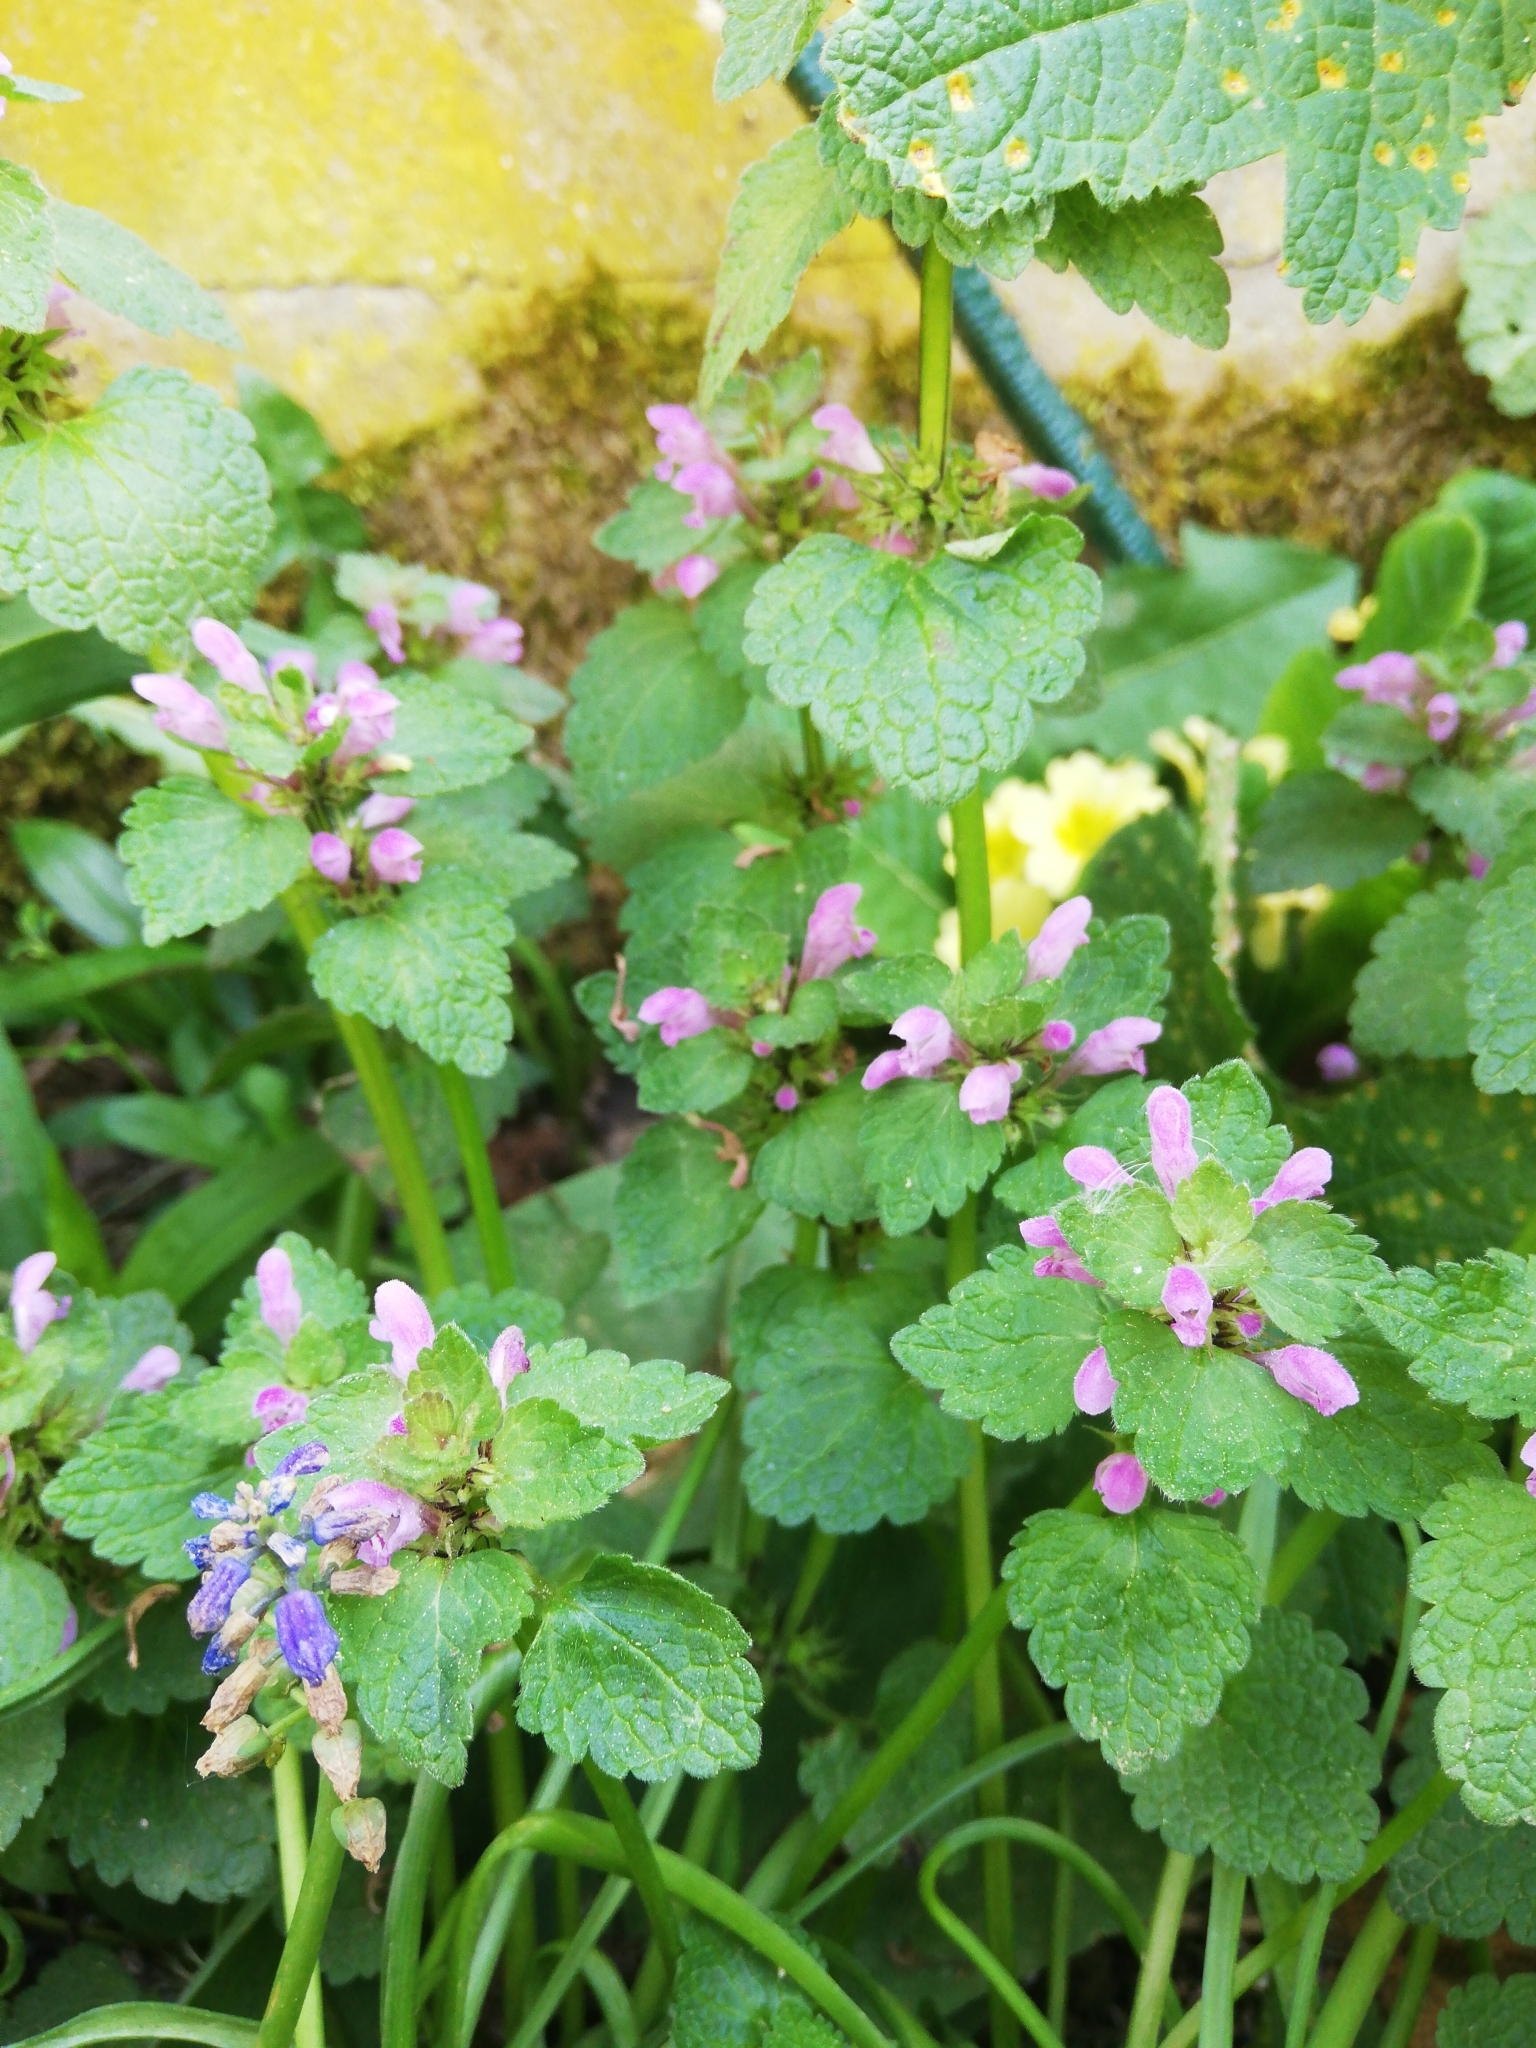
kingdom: Plantae
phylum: Tracheophyta
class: Magnoliopsida
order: Lamiales
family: Lamiaceae
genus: Lamium
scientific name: Lamium purpureum
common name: Red dead-nettle
